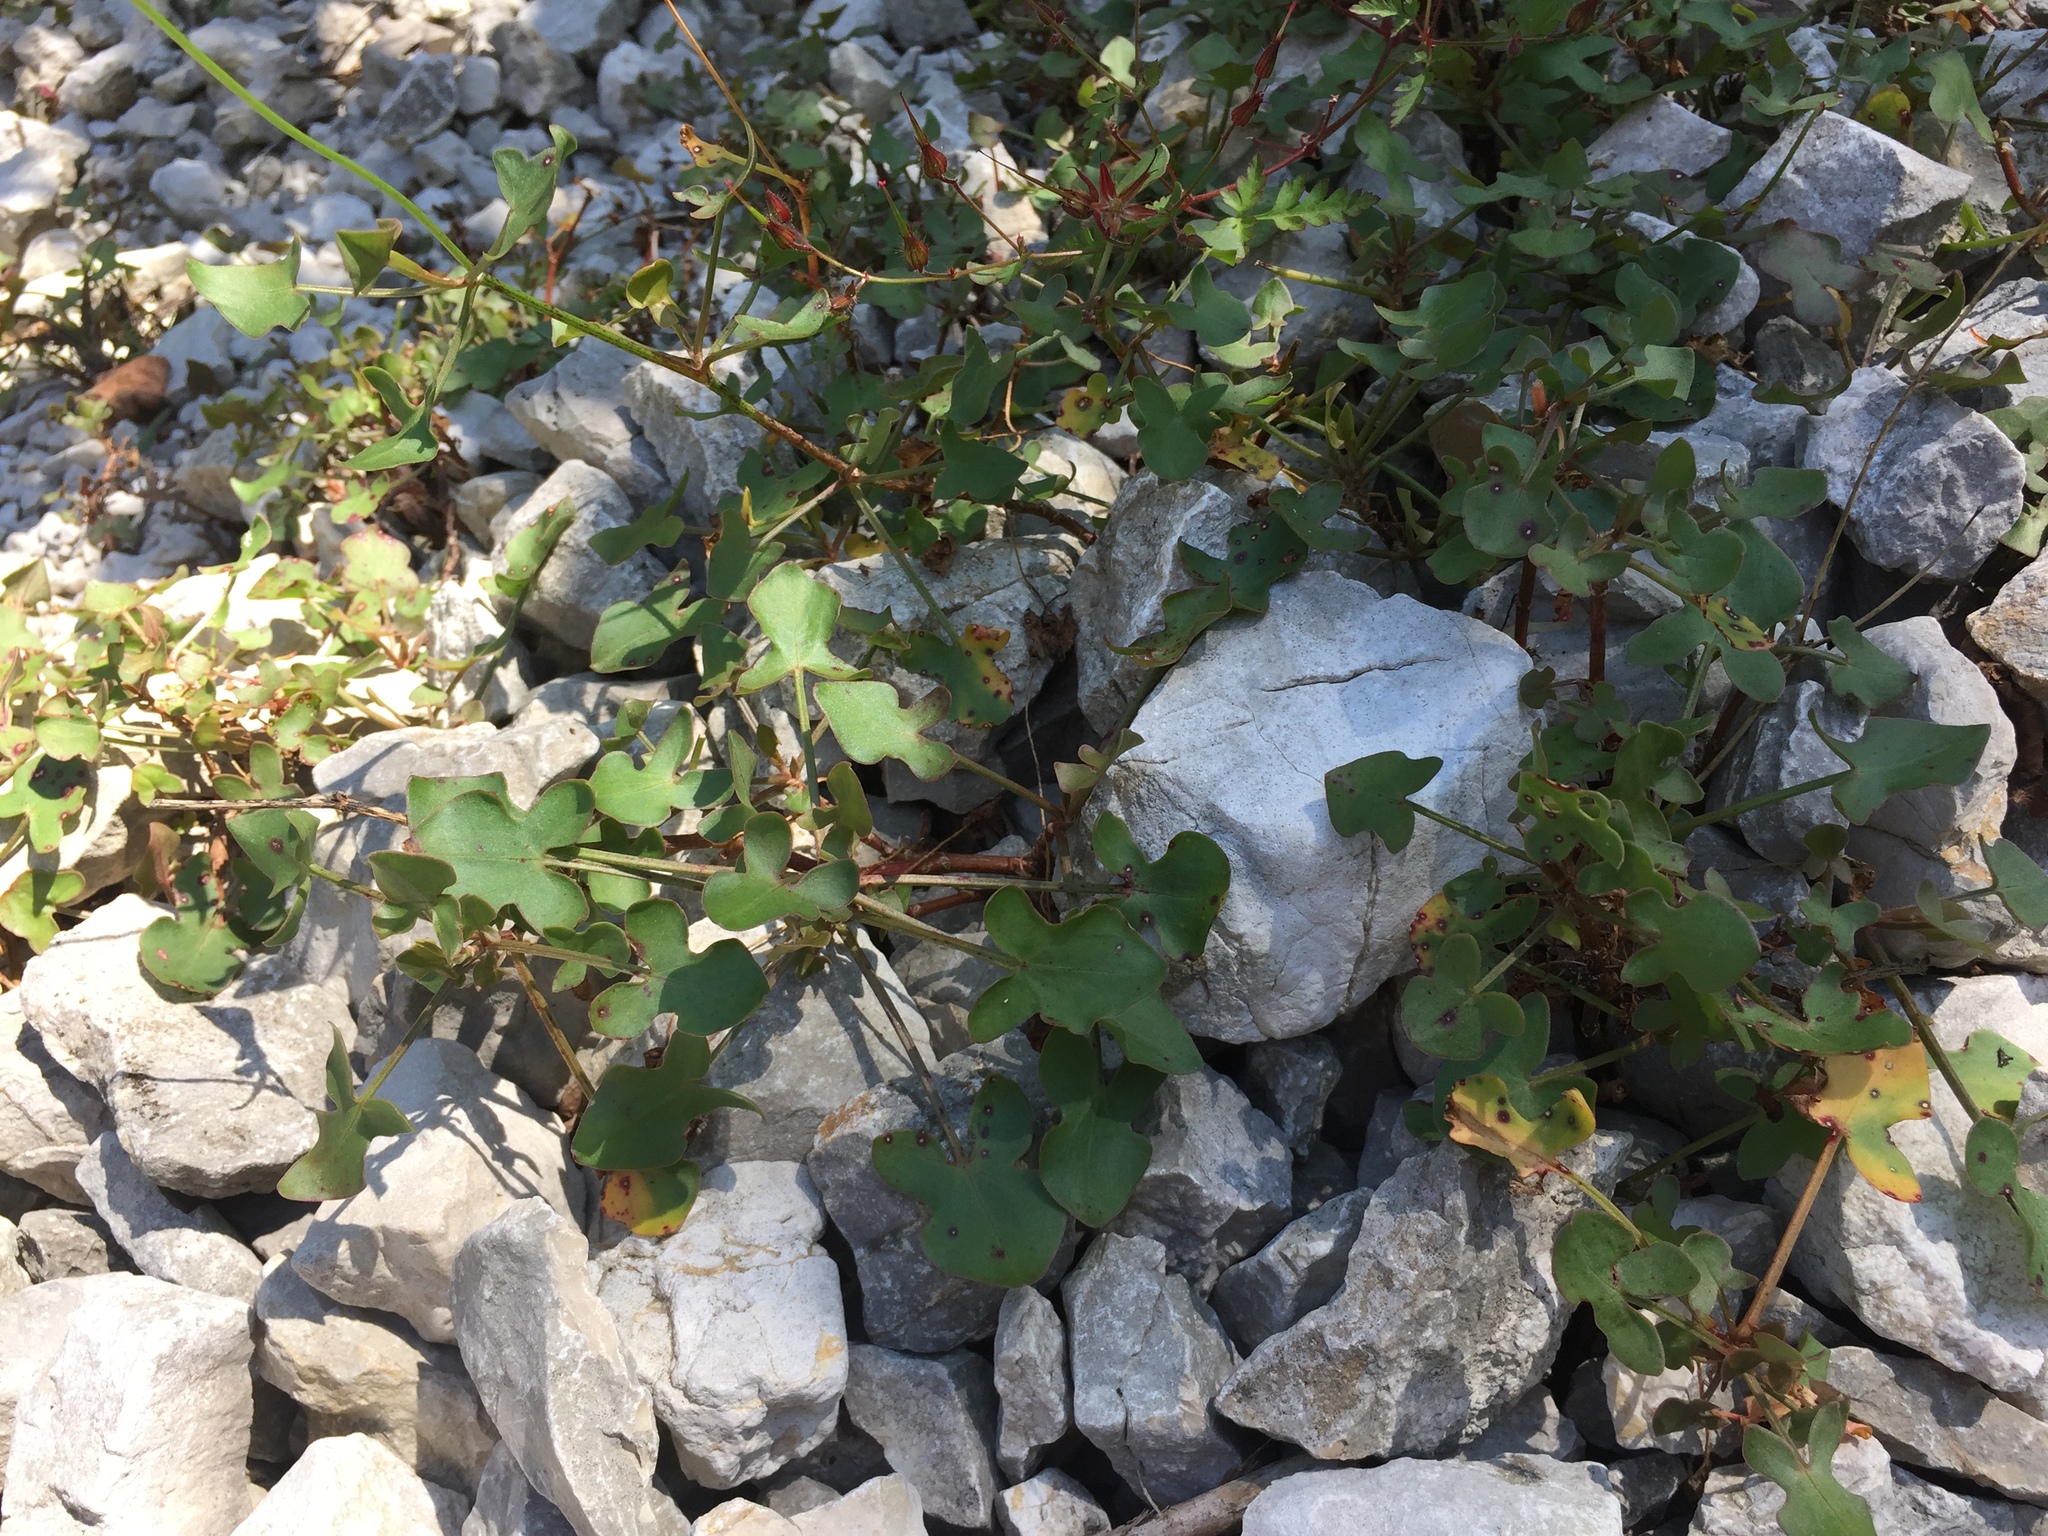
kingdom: Plantae
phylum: Tracheophyta
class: Magnoliopsida
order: Caryophyllales
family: Polygonaceae
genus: Rumex
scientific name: Rumex scutatus
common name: French sorrel
